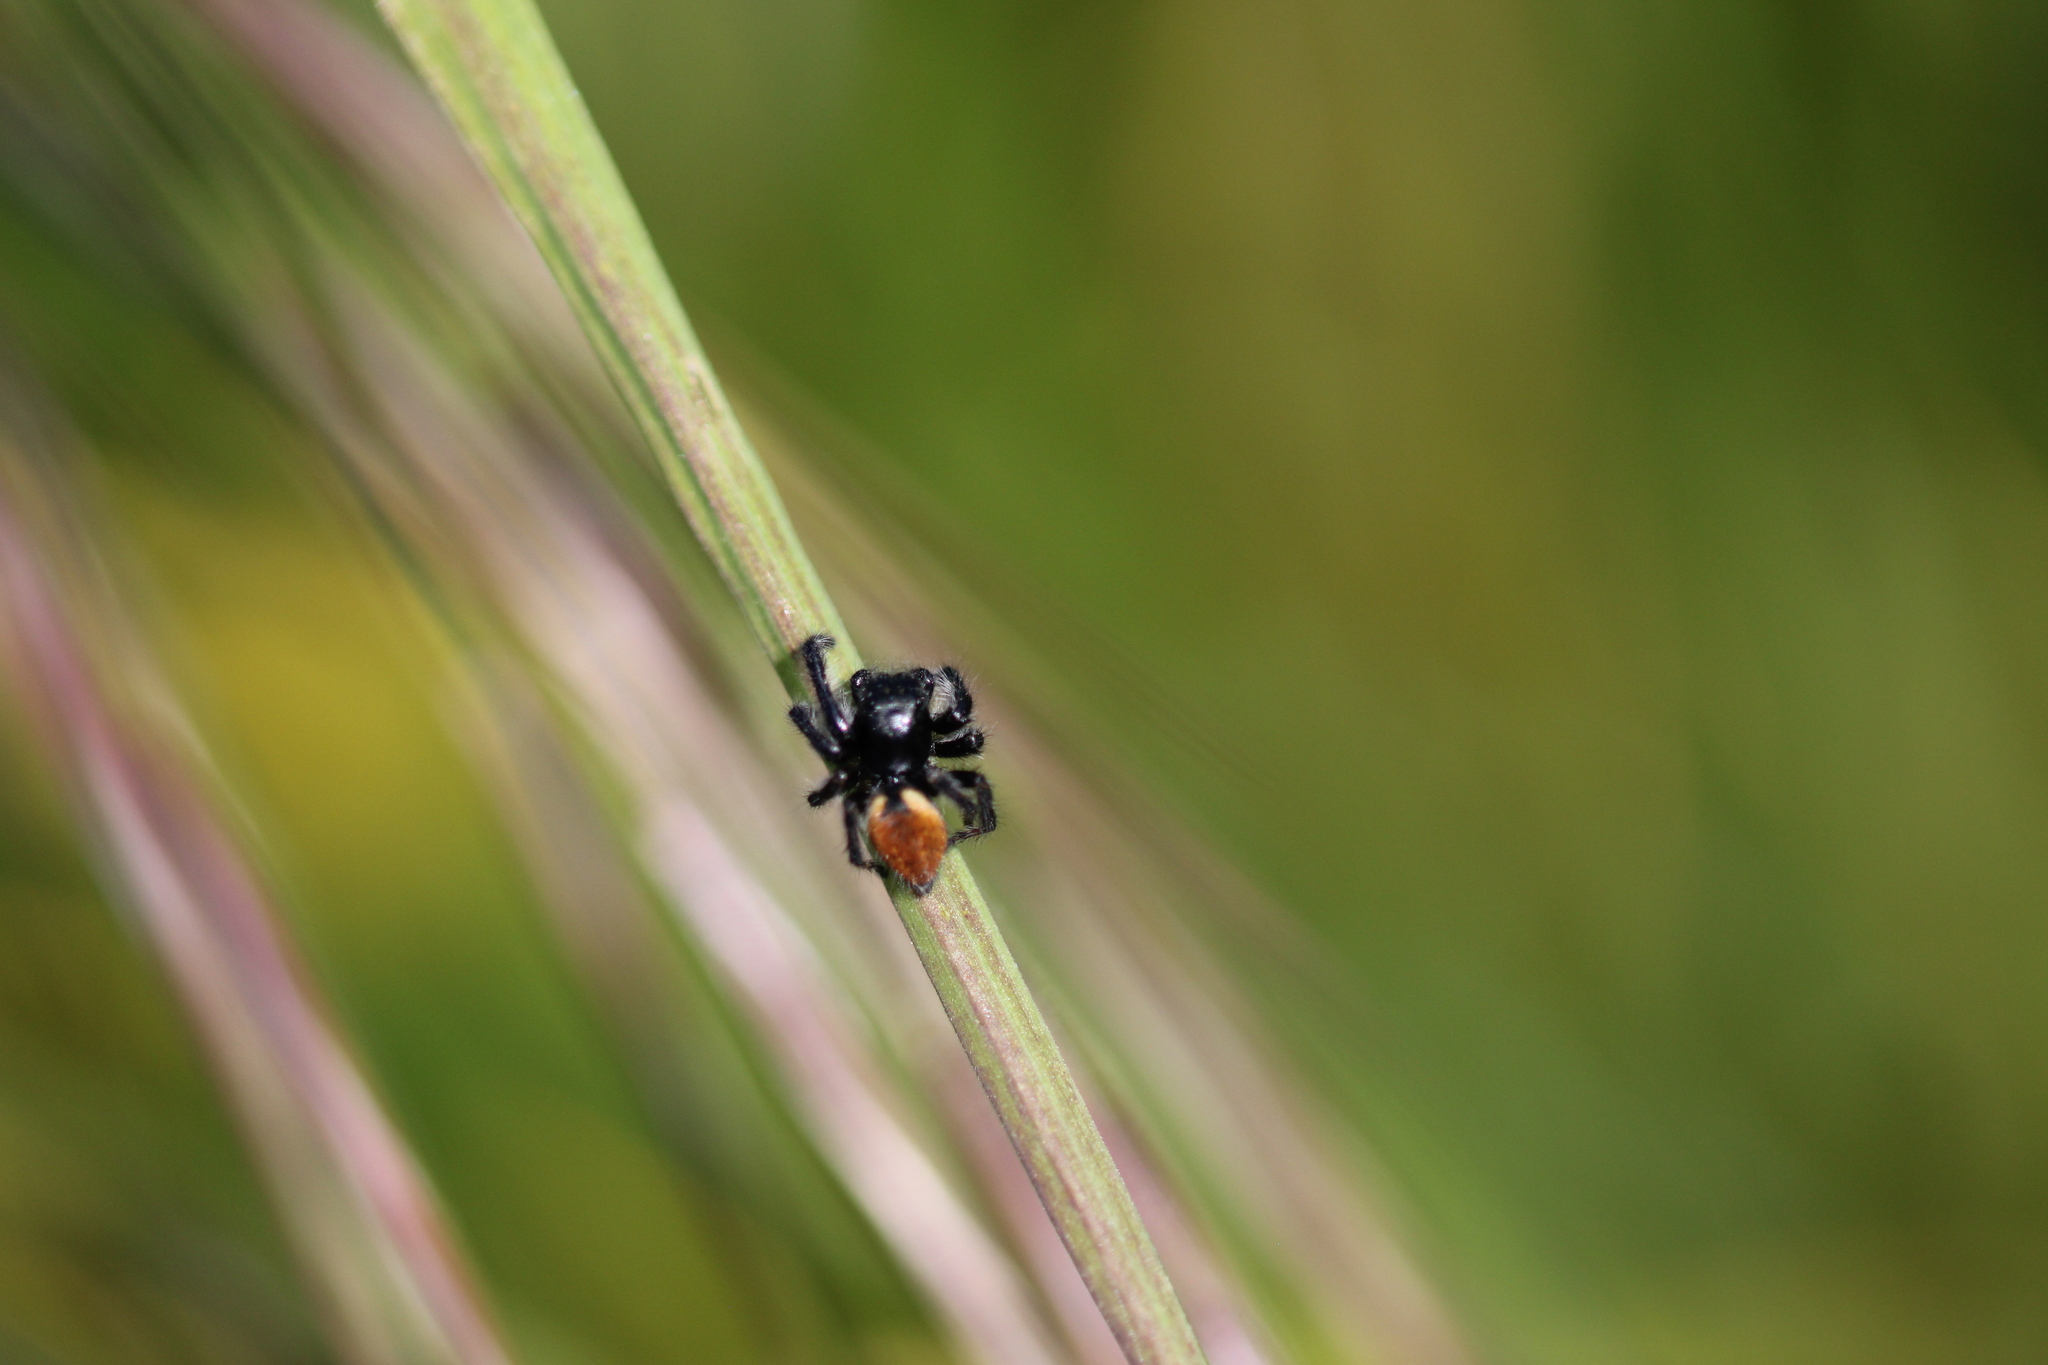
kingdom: Animalia
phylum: Arthropoda
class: Arachnida
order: Araneae
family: Salticidae
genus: Carrhotus
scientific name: Carrhotus xanthogramma
